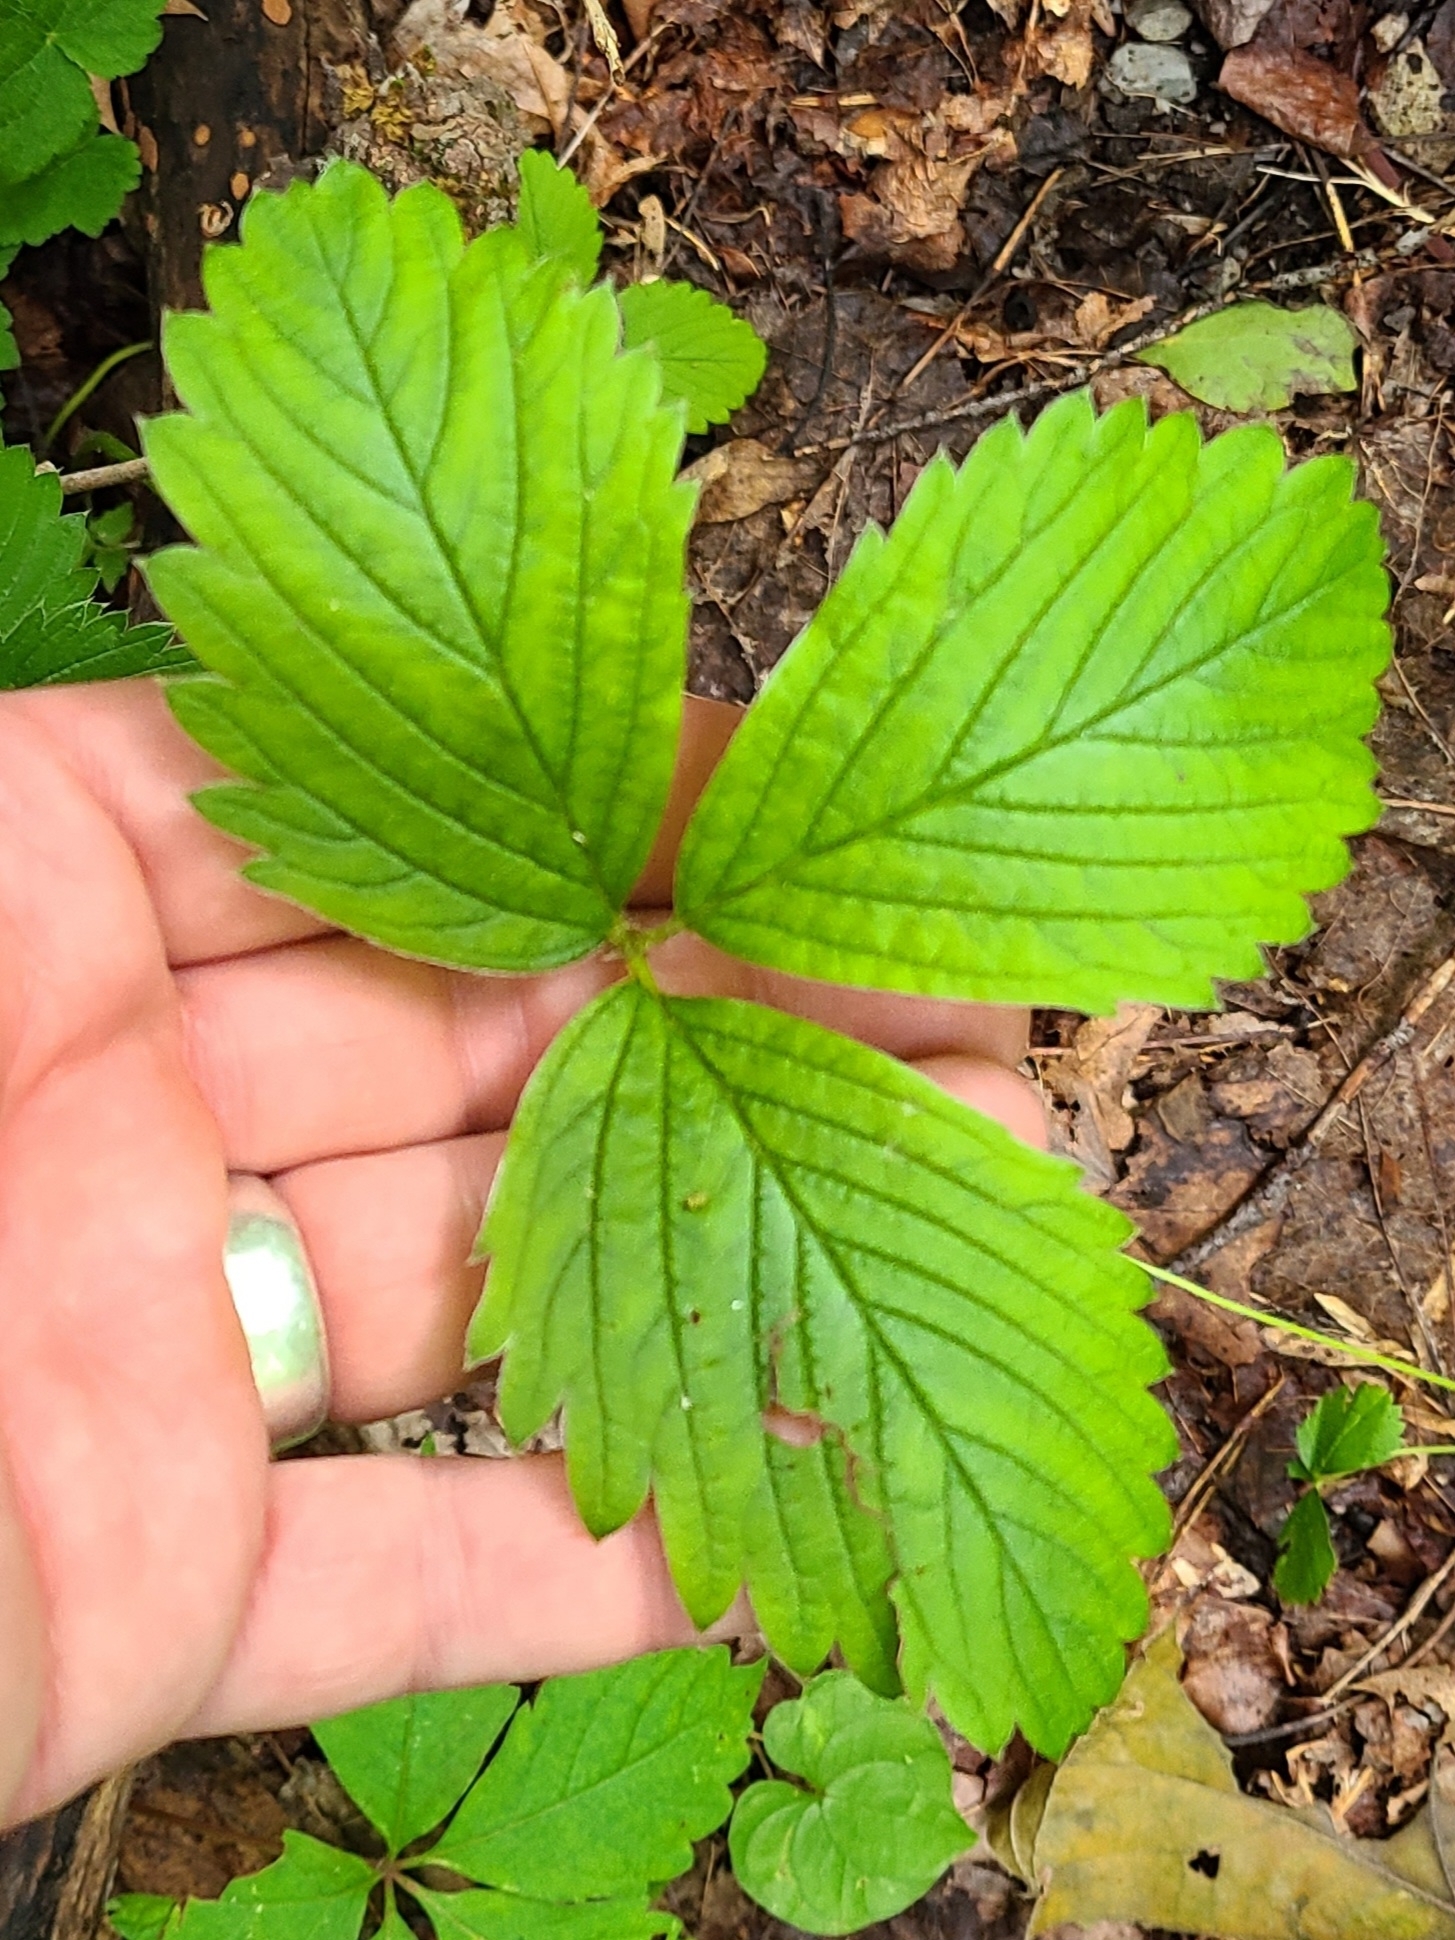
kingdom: Plantae
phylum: Tracheophyta
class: Magnoliopsida
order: Rosales
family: Rosaceae
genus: Fragaria
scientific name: Fragaria virginiana
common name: Thickleaved wild strawberry
